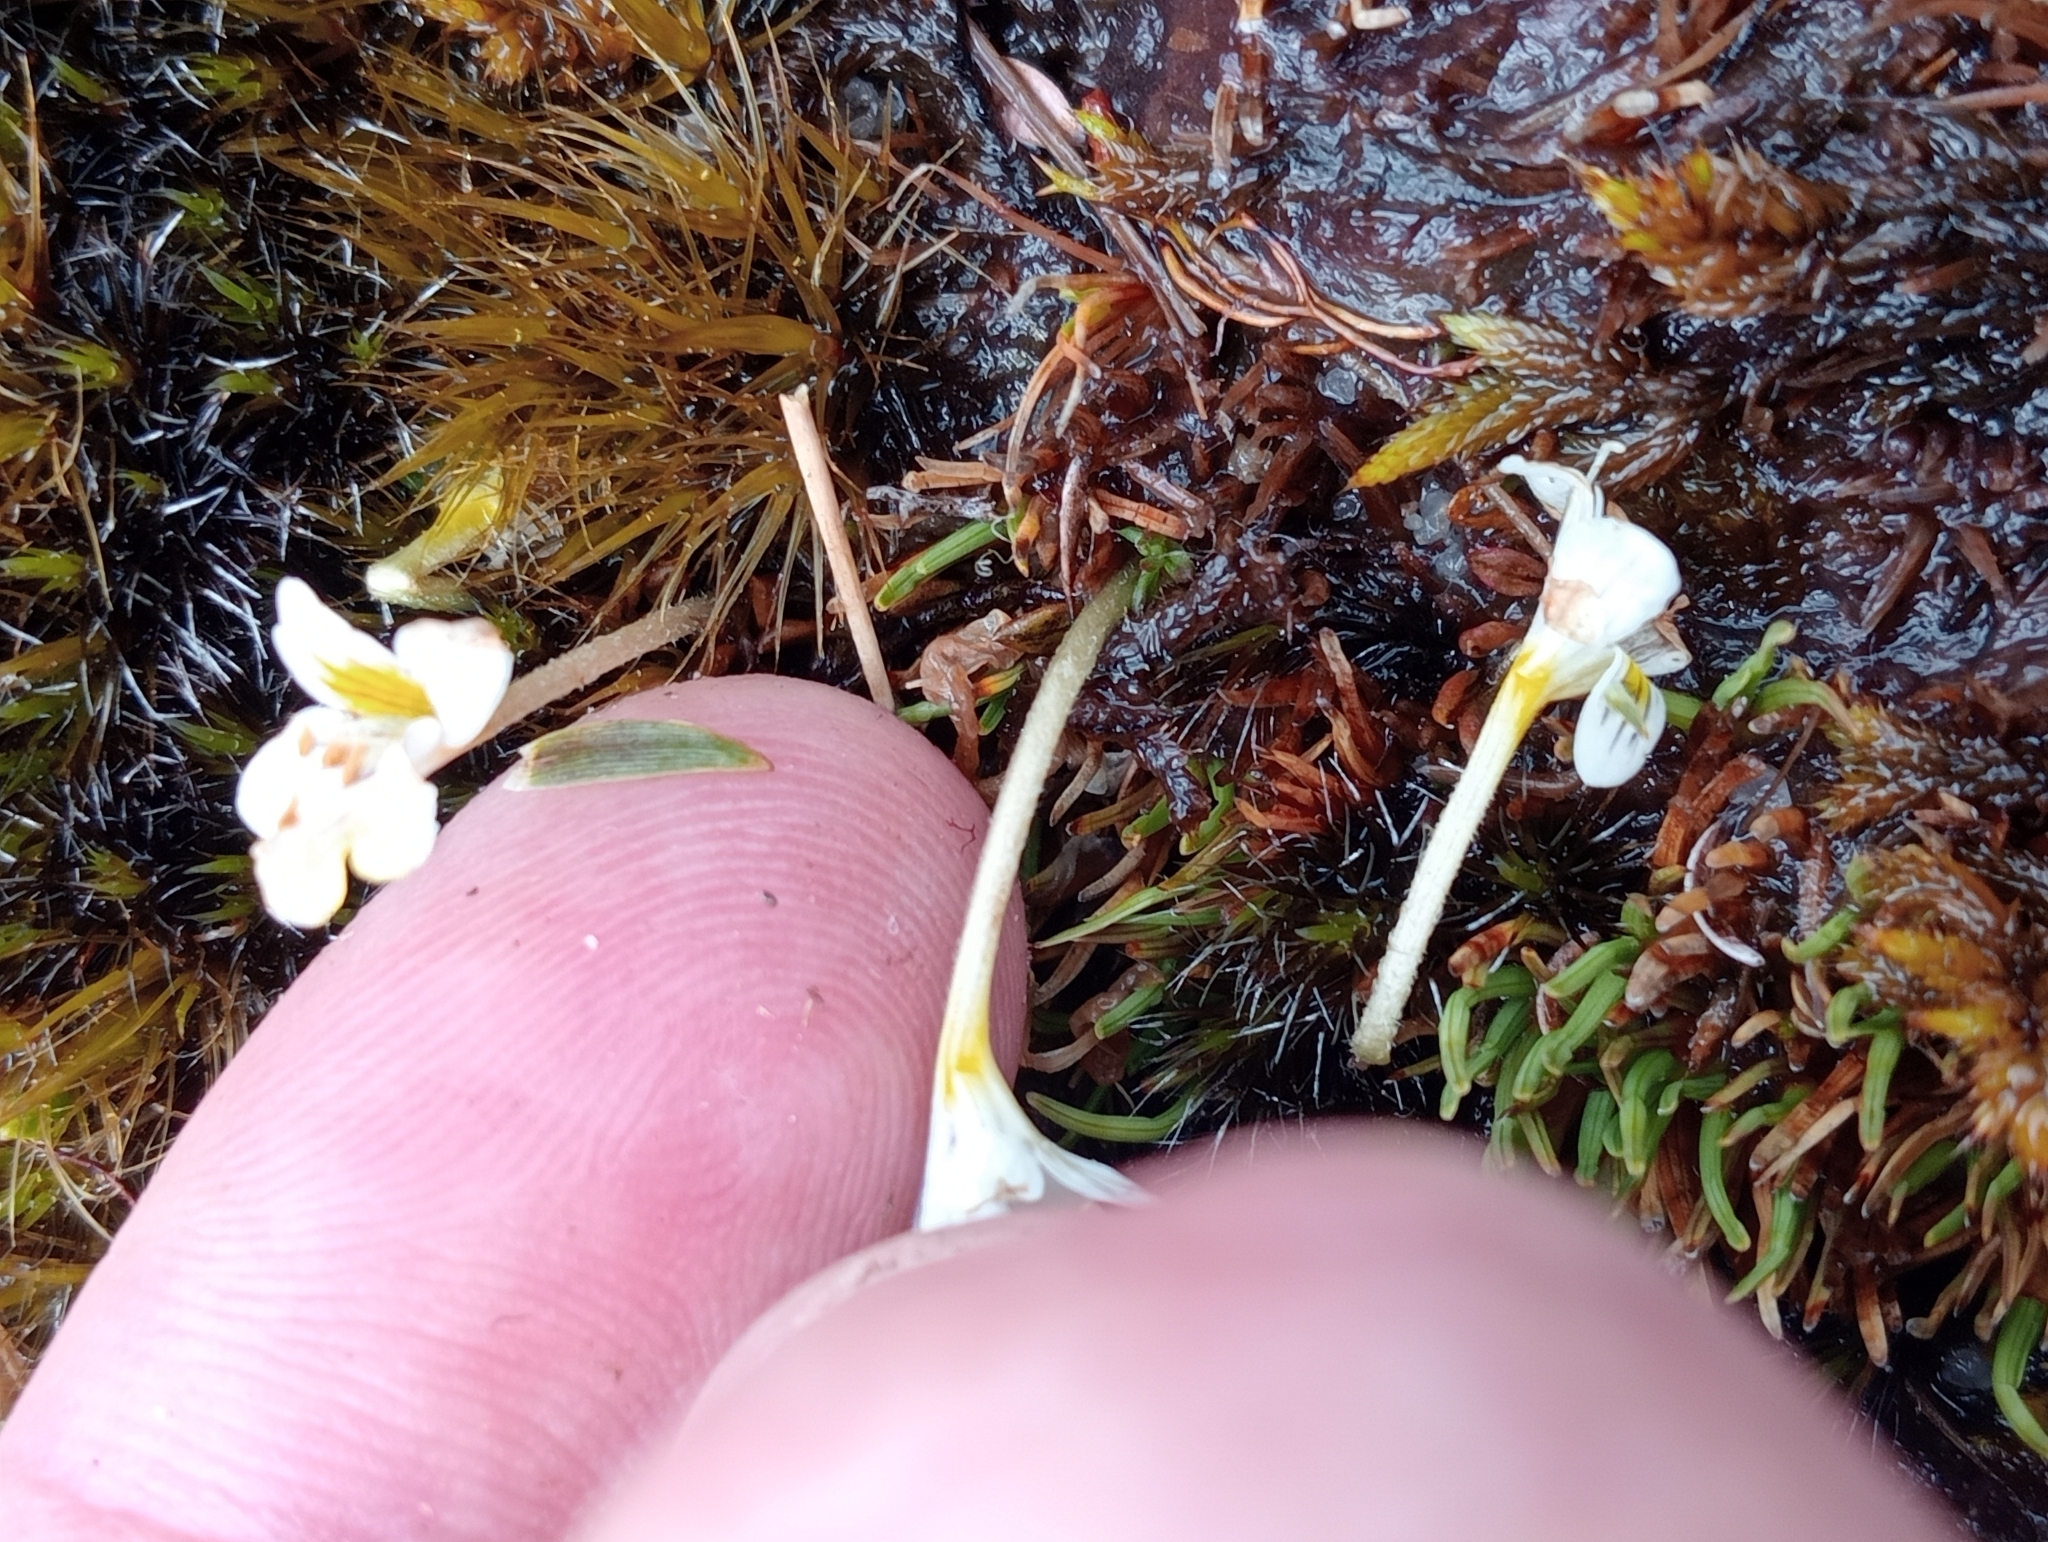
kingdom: Plantae
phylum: Tracheophyta
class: Magnoliopsida
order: Lamiales
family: Orobanchaceae
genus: Euphrasia
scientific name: Euphrasia disperma
